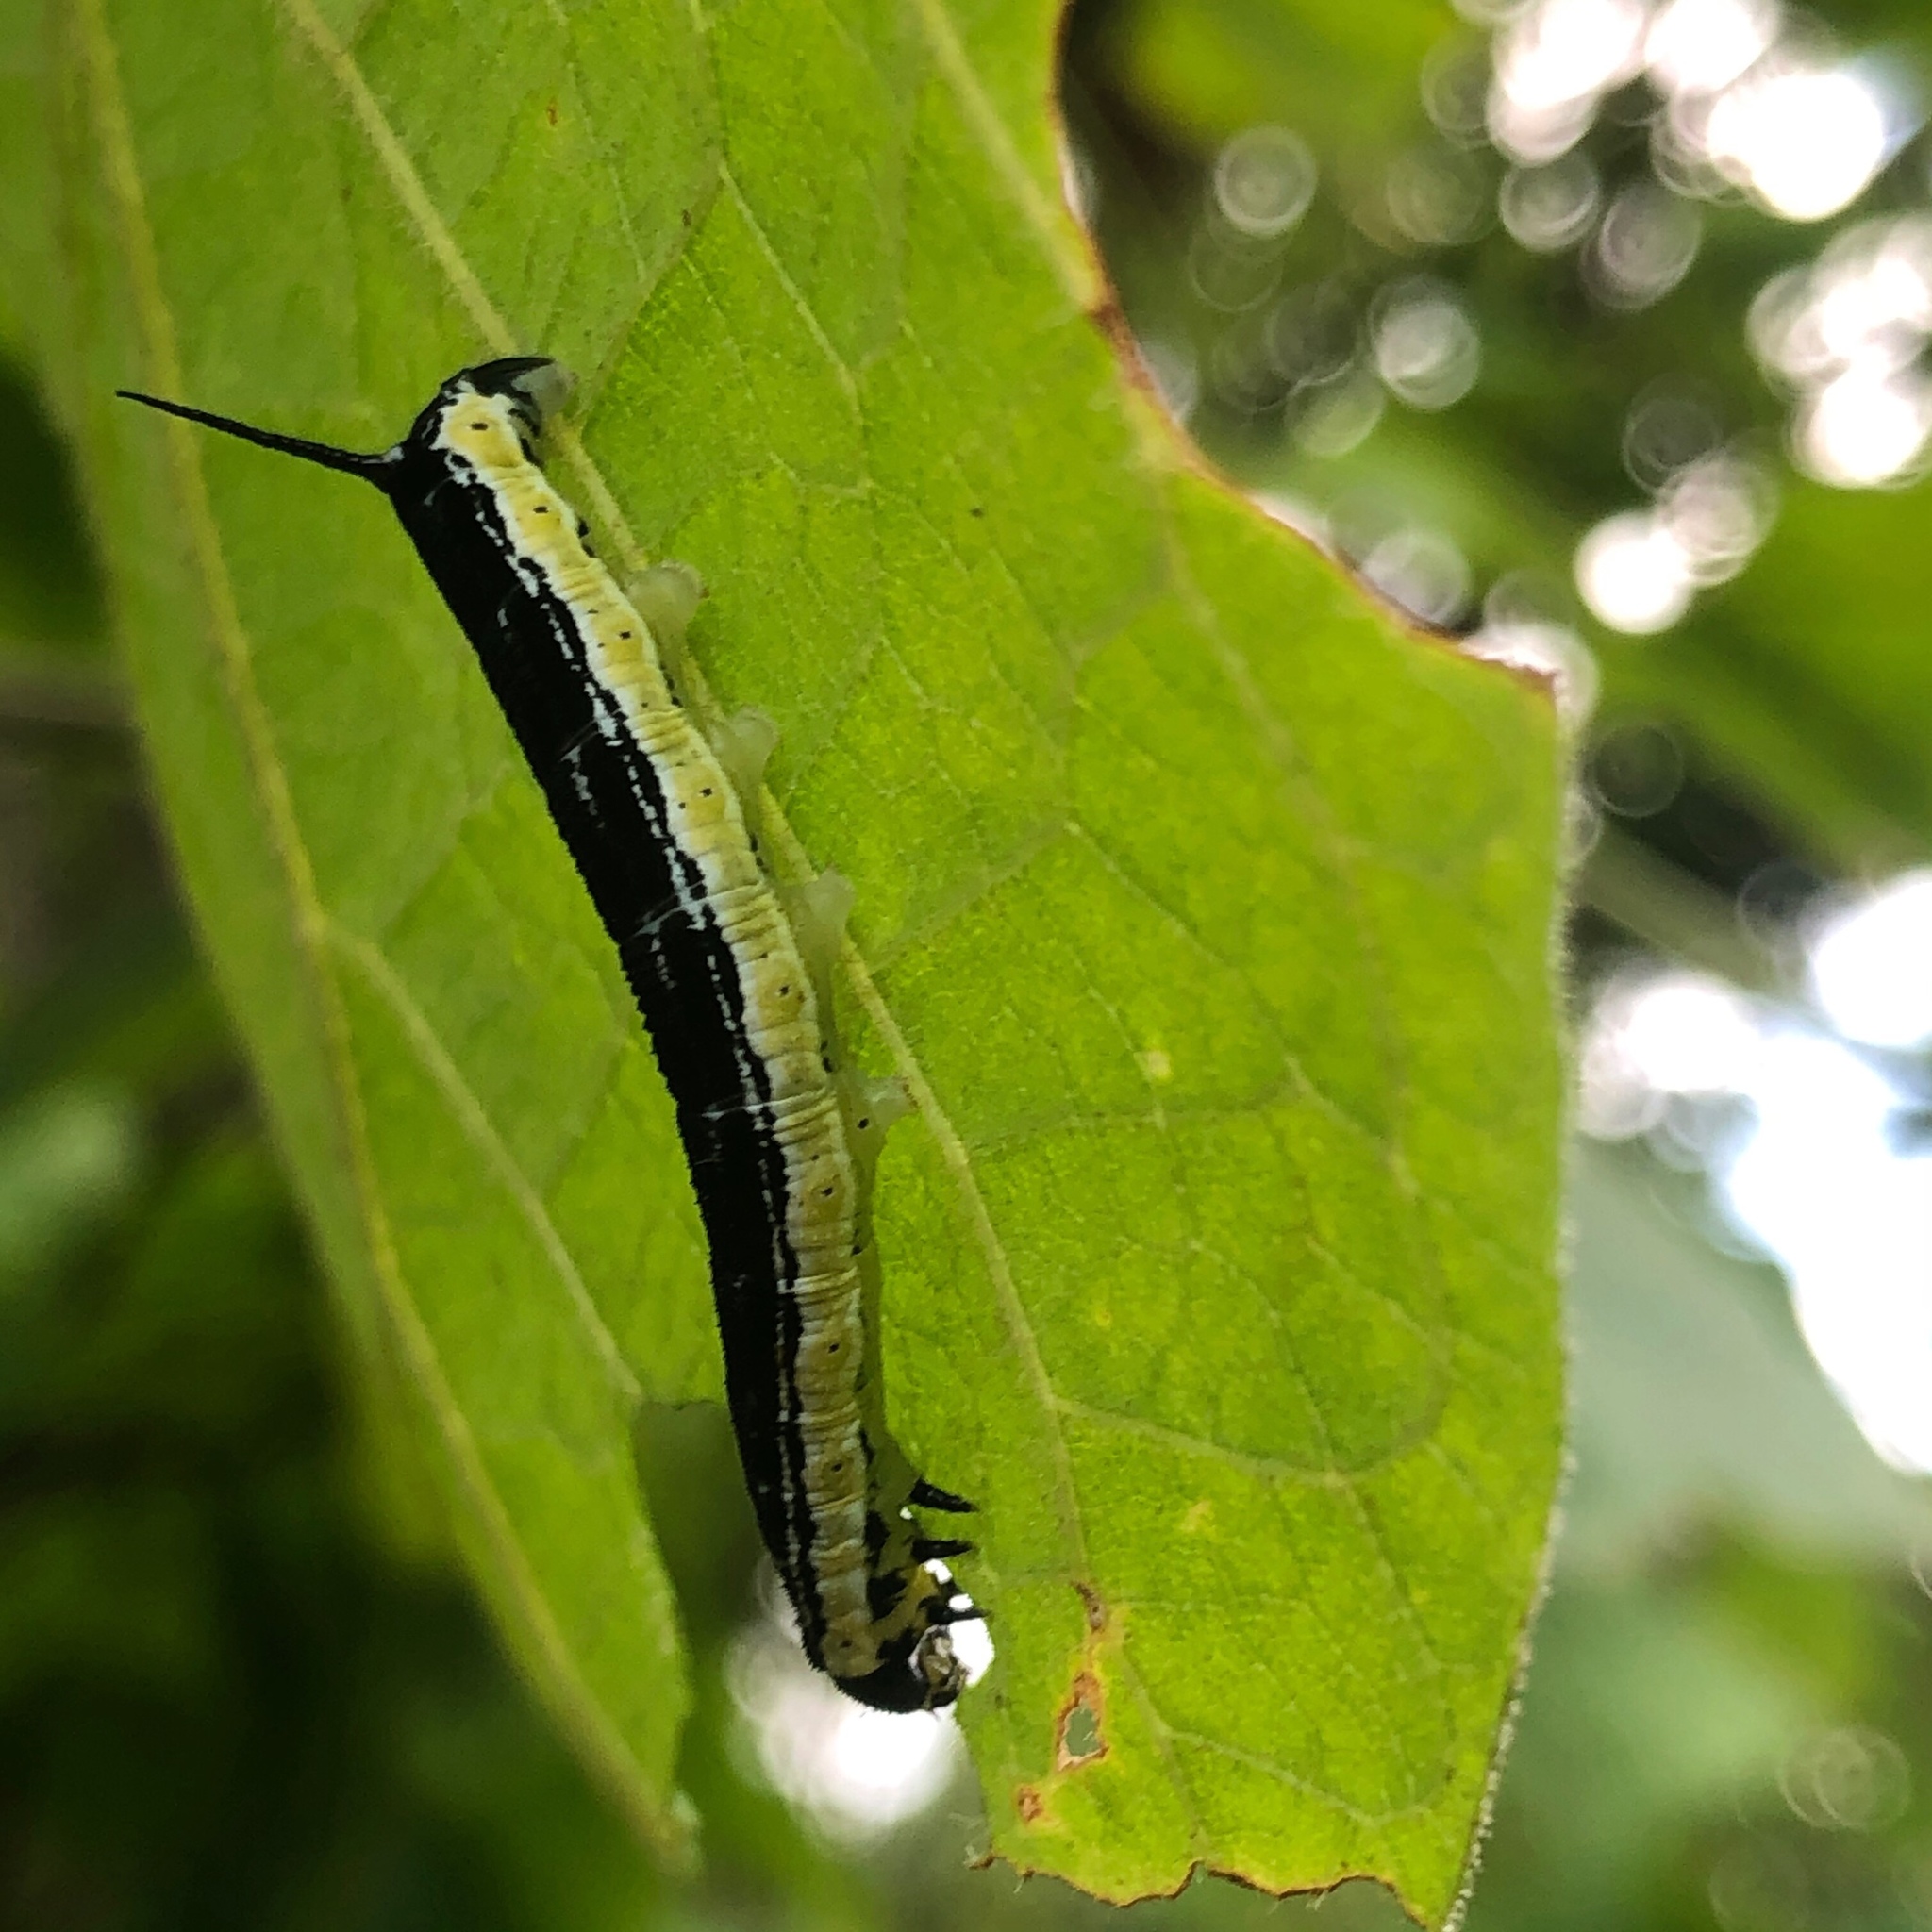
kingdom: Animalia
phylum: Arthropoda
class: Insecta
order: Lepidoptera
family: Sphingidae
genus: Ceratomia
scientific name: Ceratomia catalpae
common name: Catalpa hornworm
